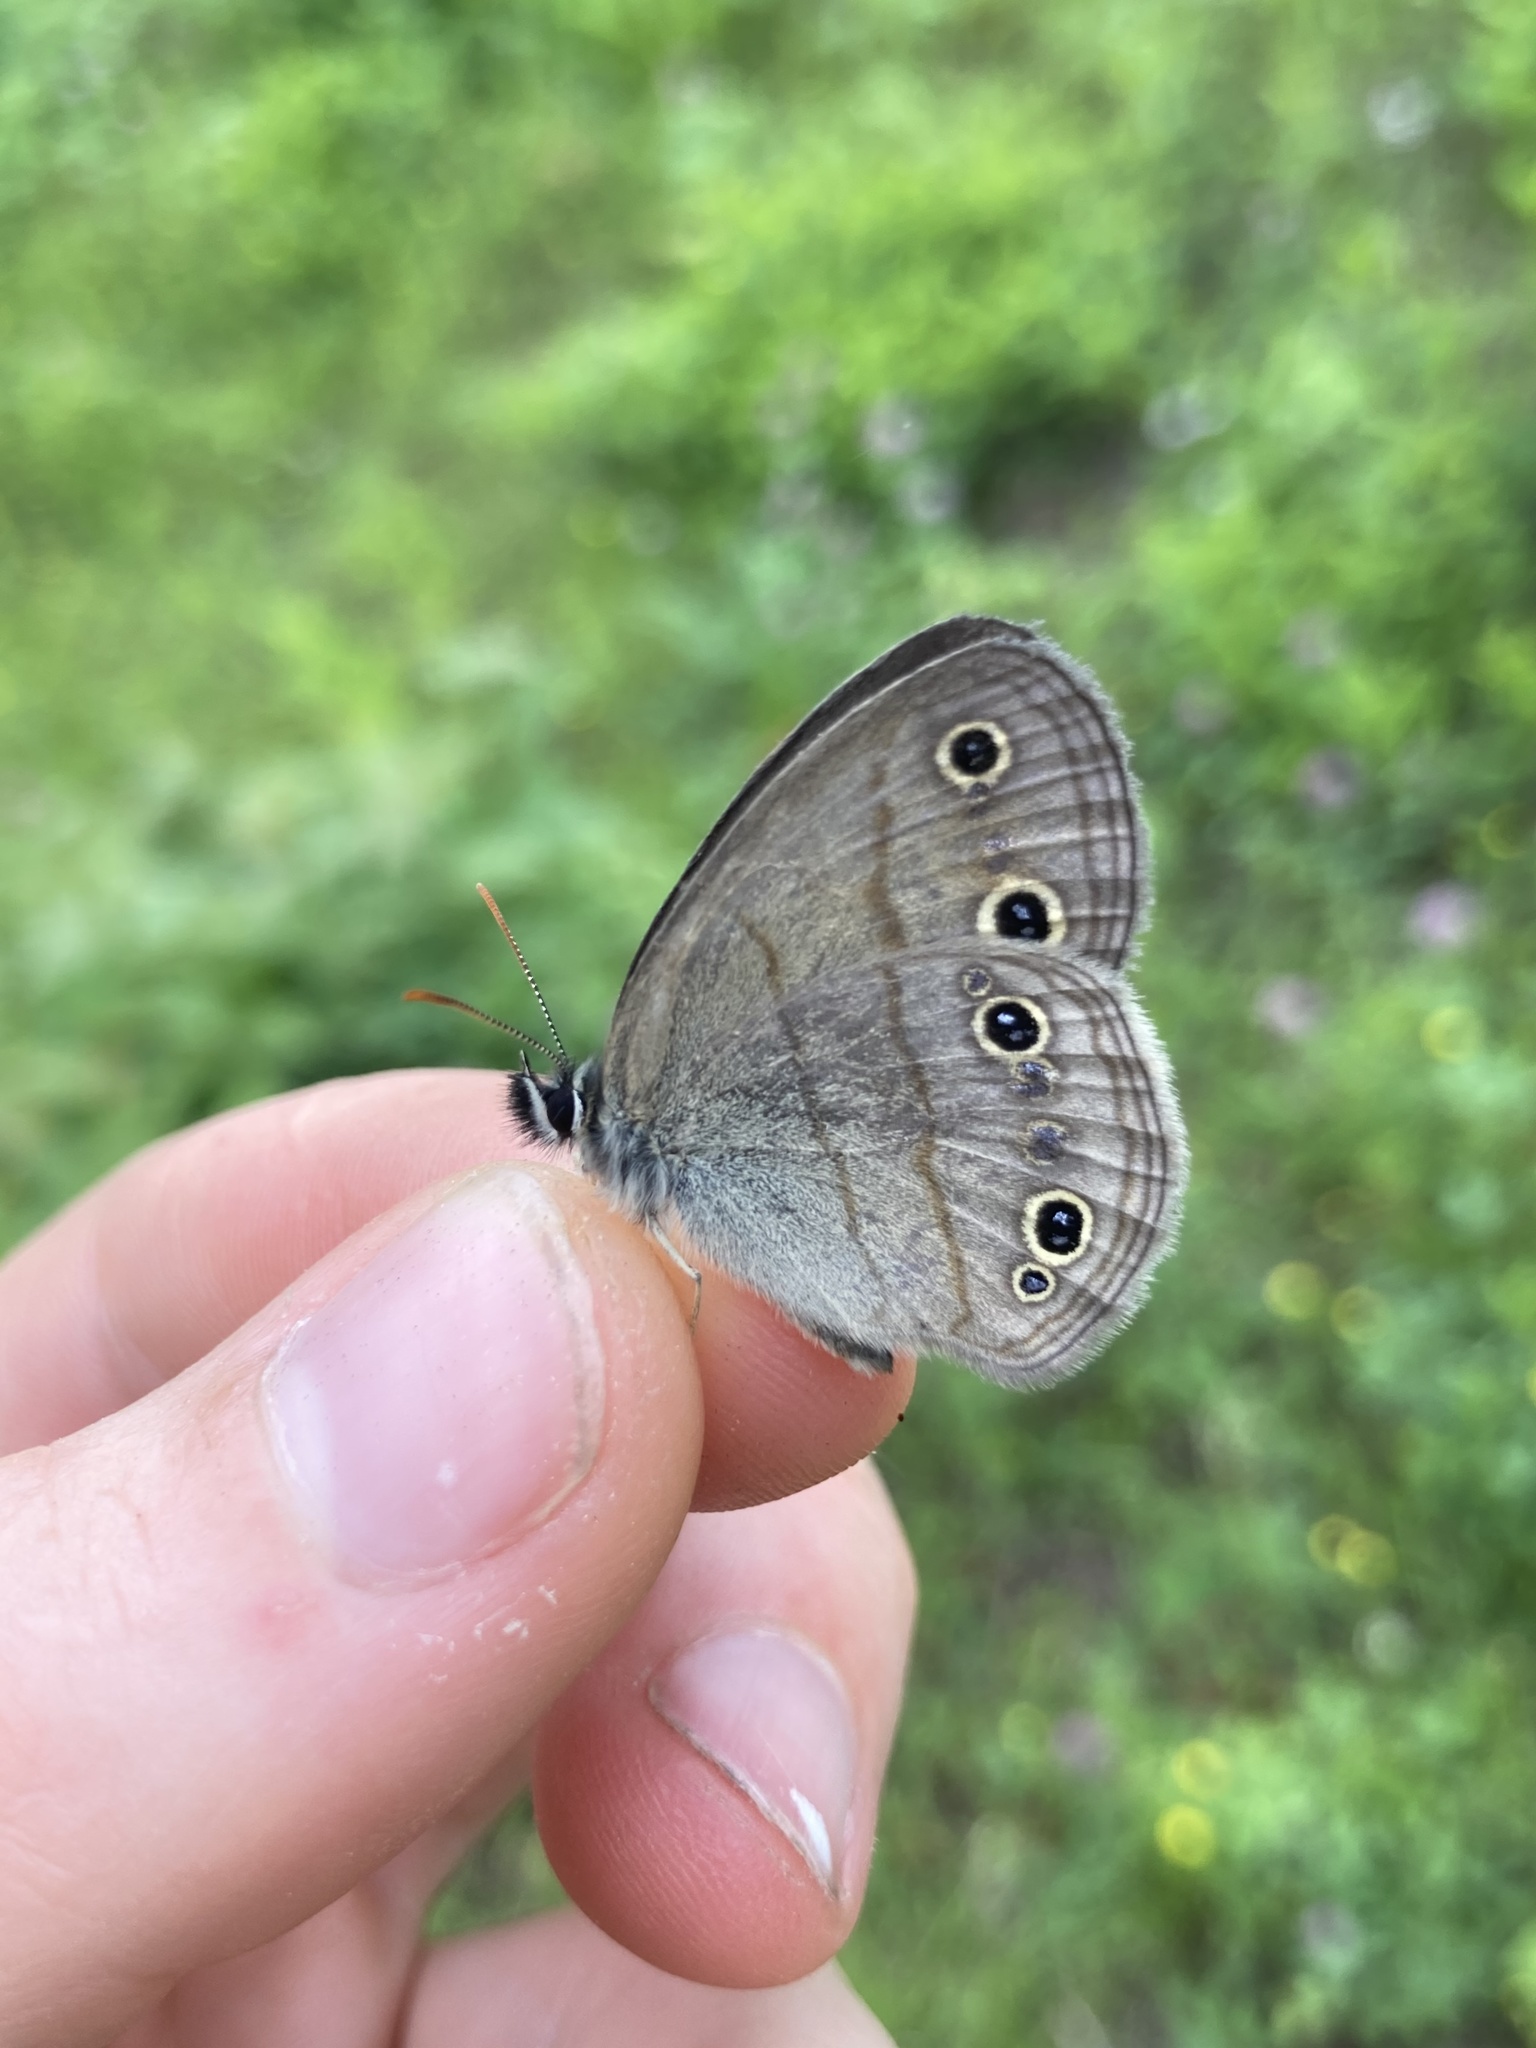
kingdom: Animalia
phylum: Arthropoda
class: Insecta
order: Lepidoptera
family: Nymphalidae
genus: Euptychia
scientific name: Euptychia cymela
